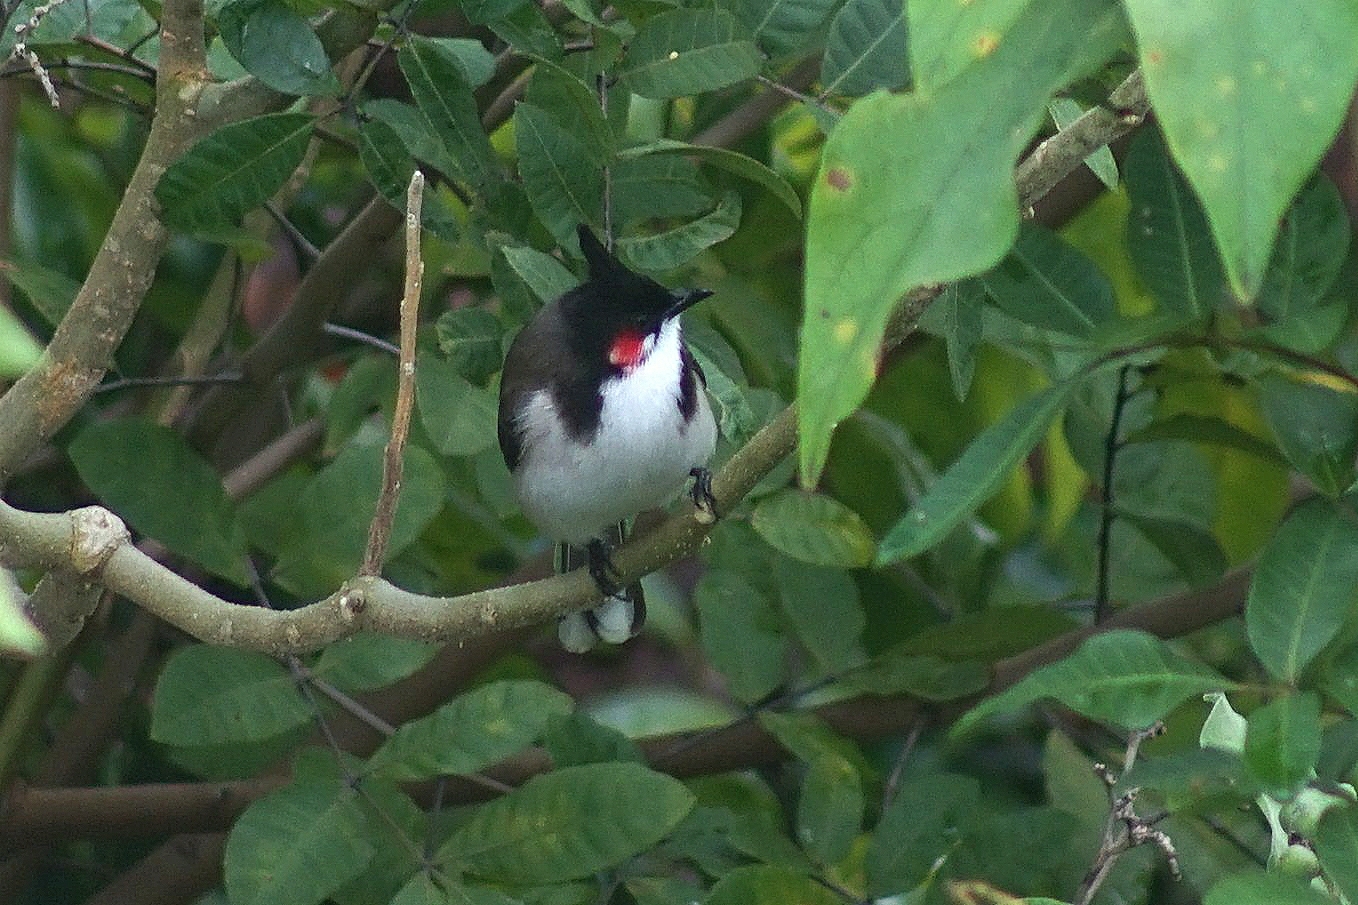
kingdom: Animalia
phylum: Chordata
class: Aves
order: Passeriformes
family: Pycnonotidae
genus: Pycnonotus
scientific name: Pycnonotus jocosus
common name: Red-whiskered bulbul
